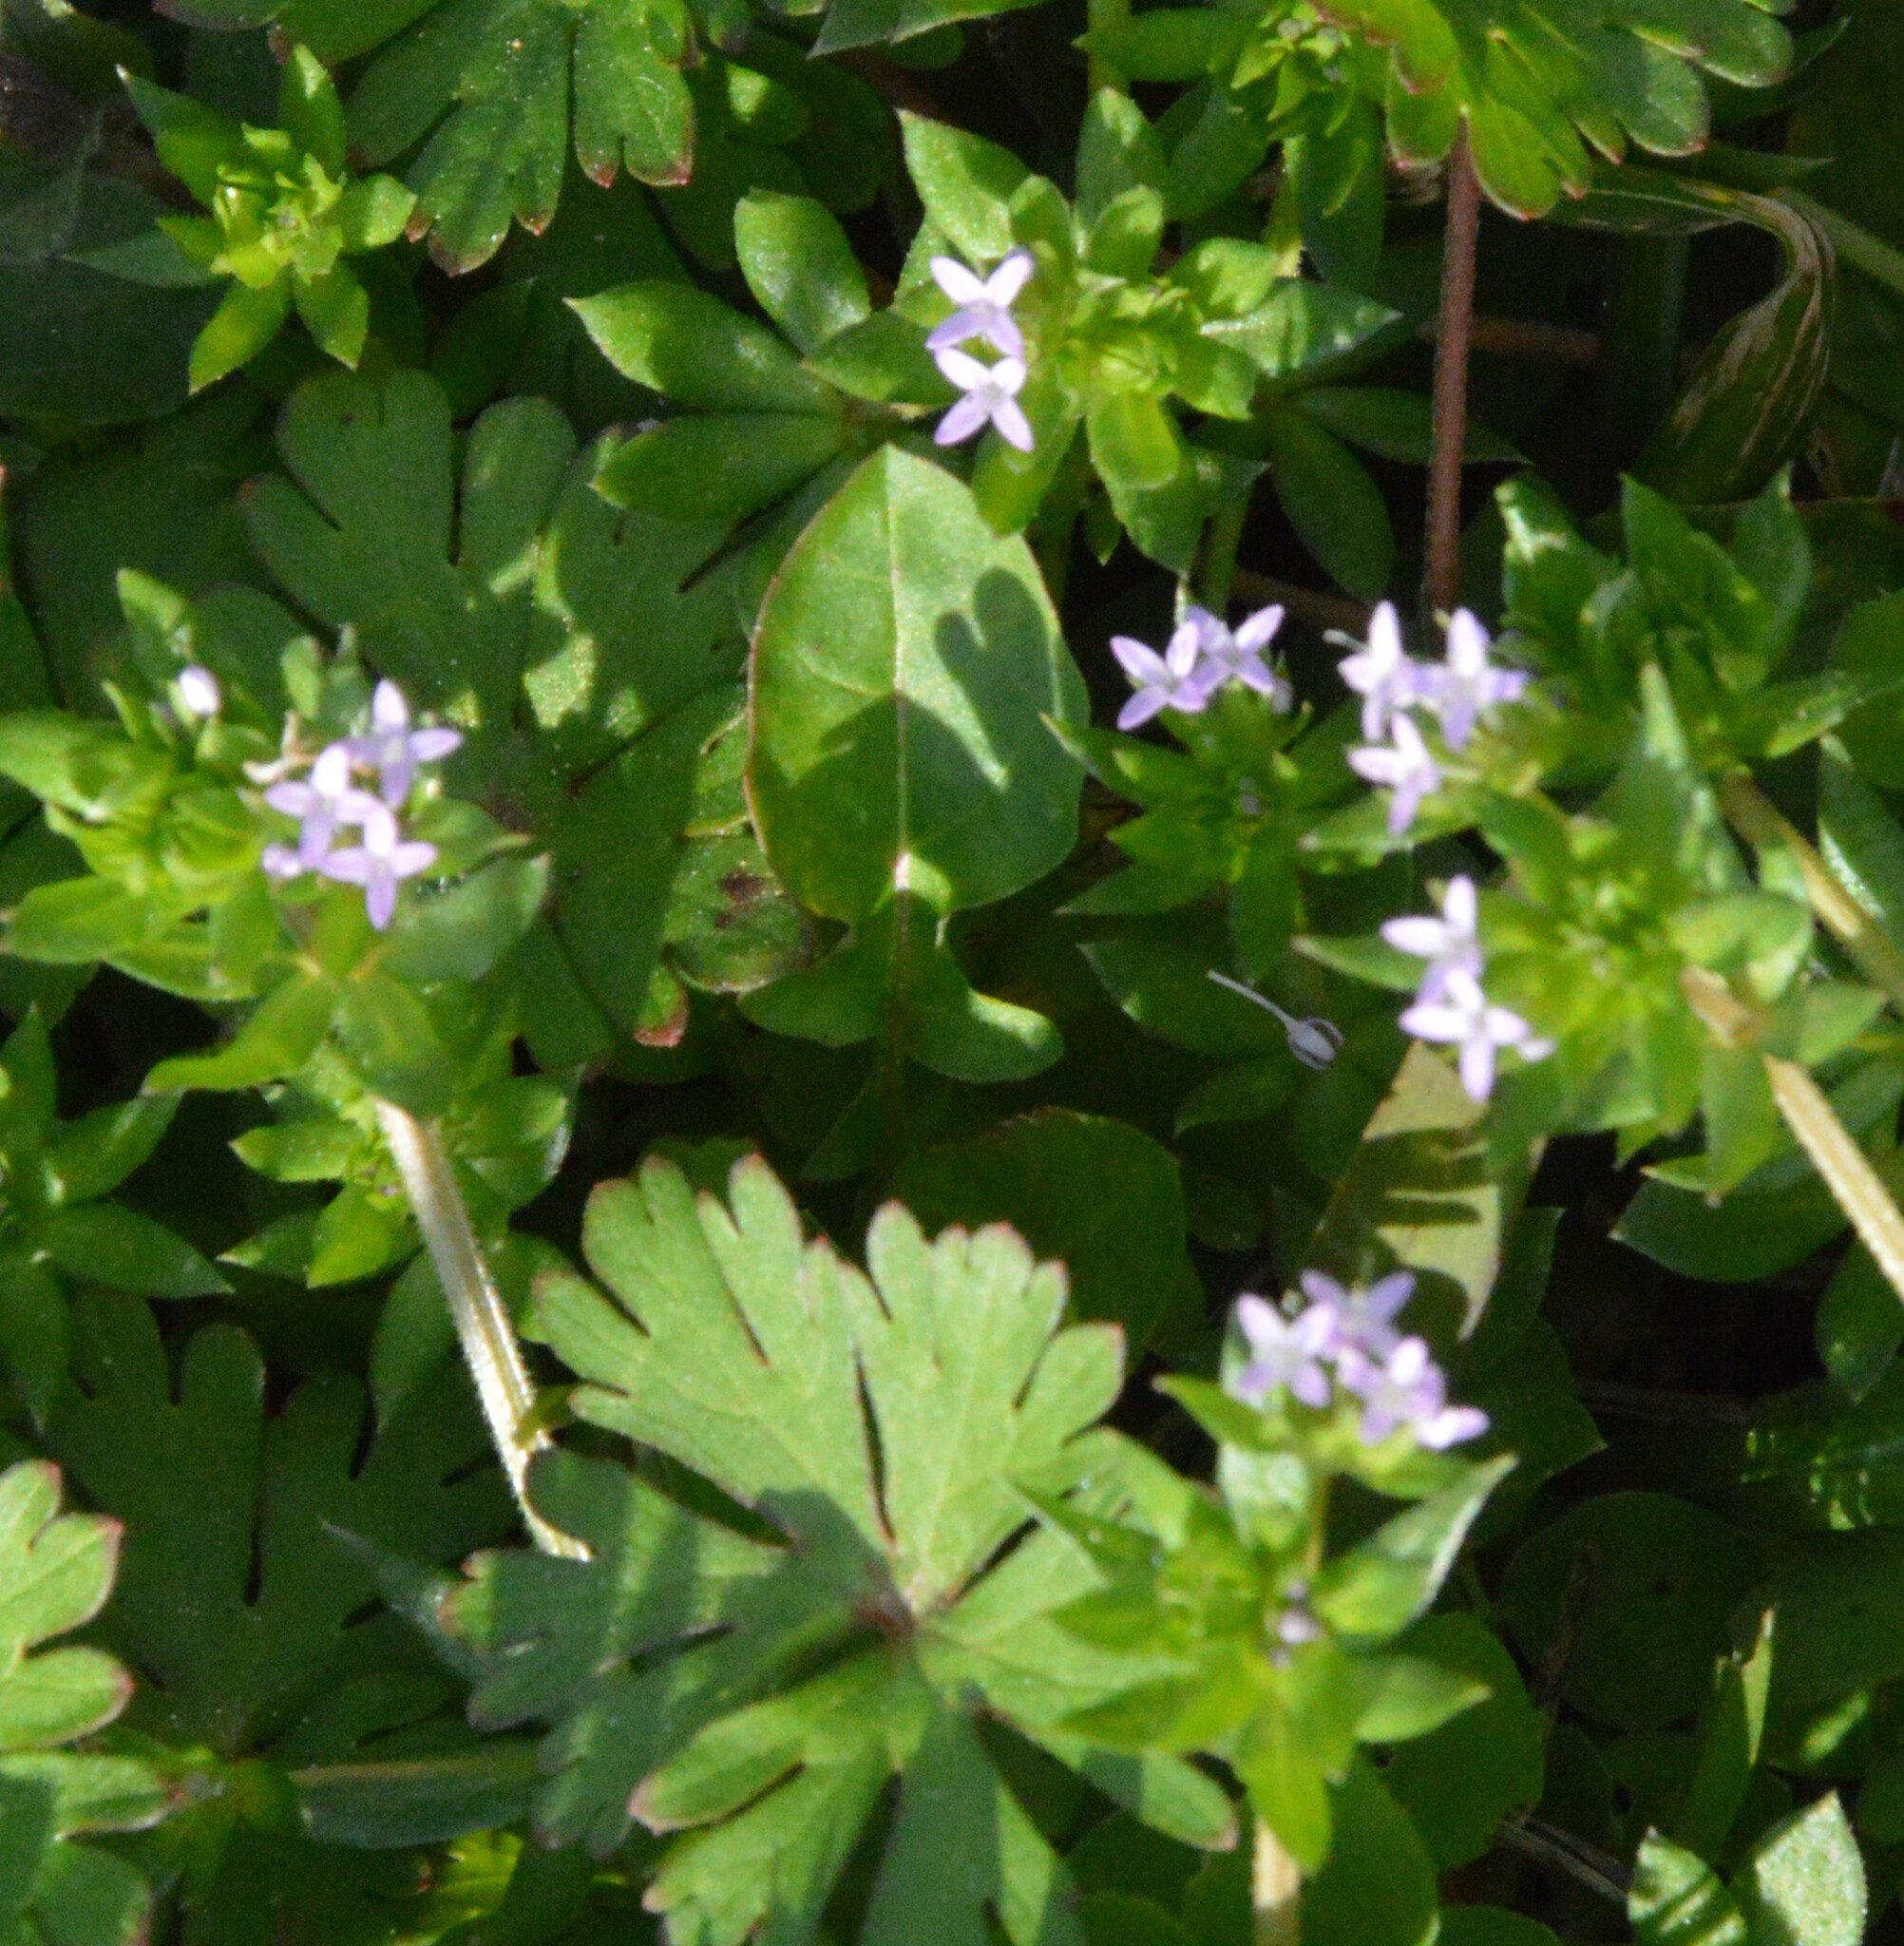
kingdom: Plantae
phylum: Tracheophyta
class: Magnoliopsida
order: Gentianales
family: Rubiaceae
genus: Sherardia
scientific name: Sherardia arvensis
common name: Field madder
